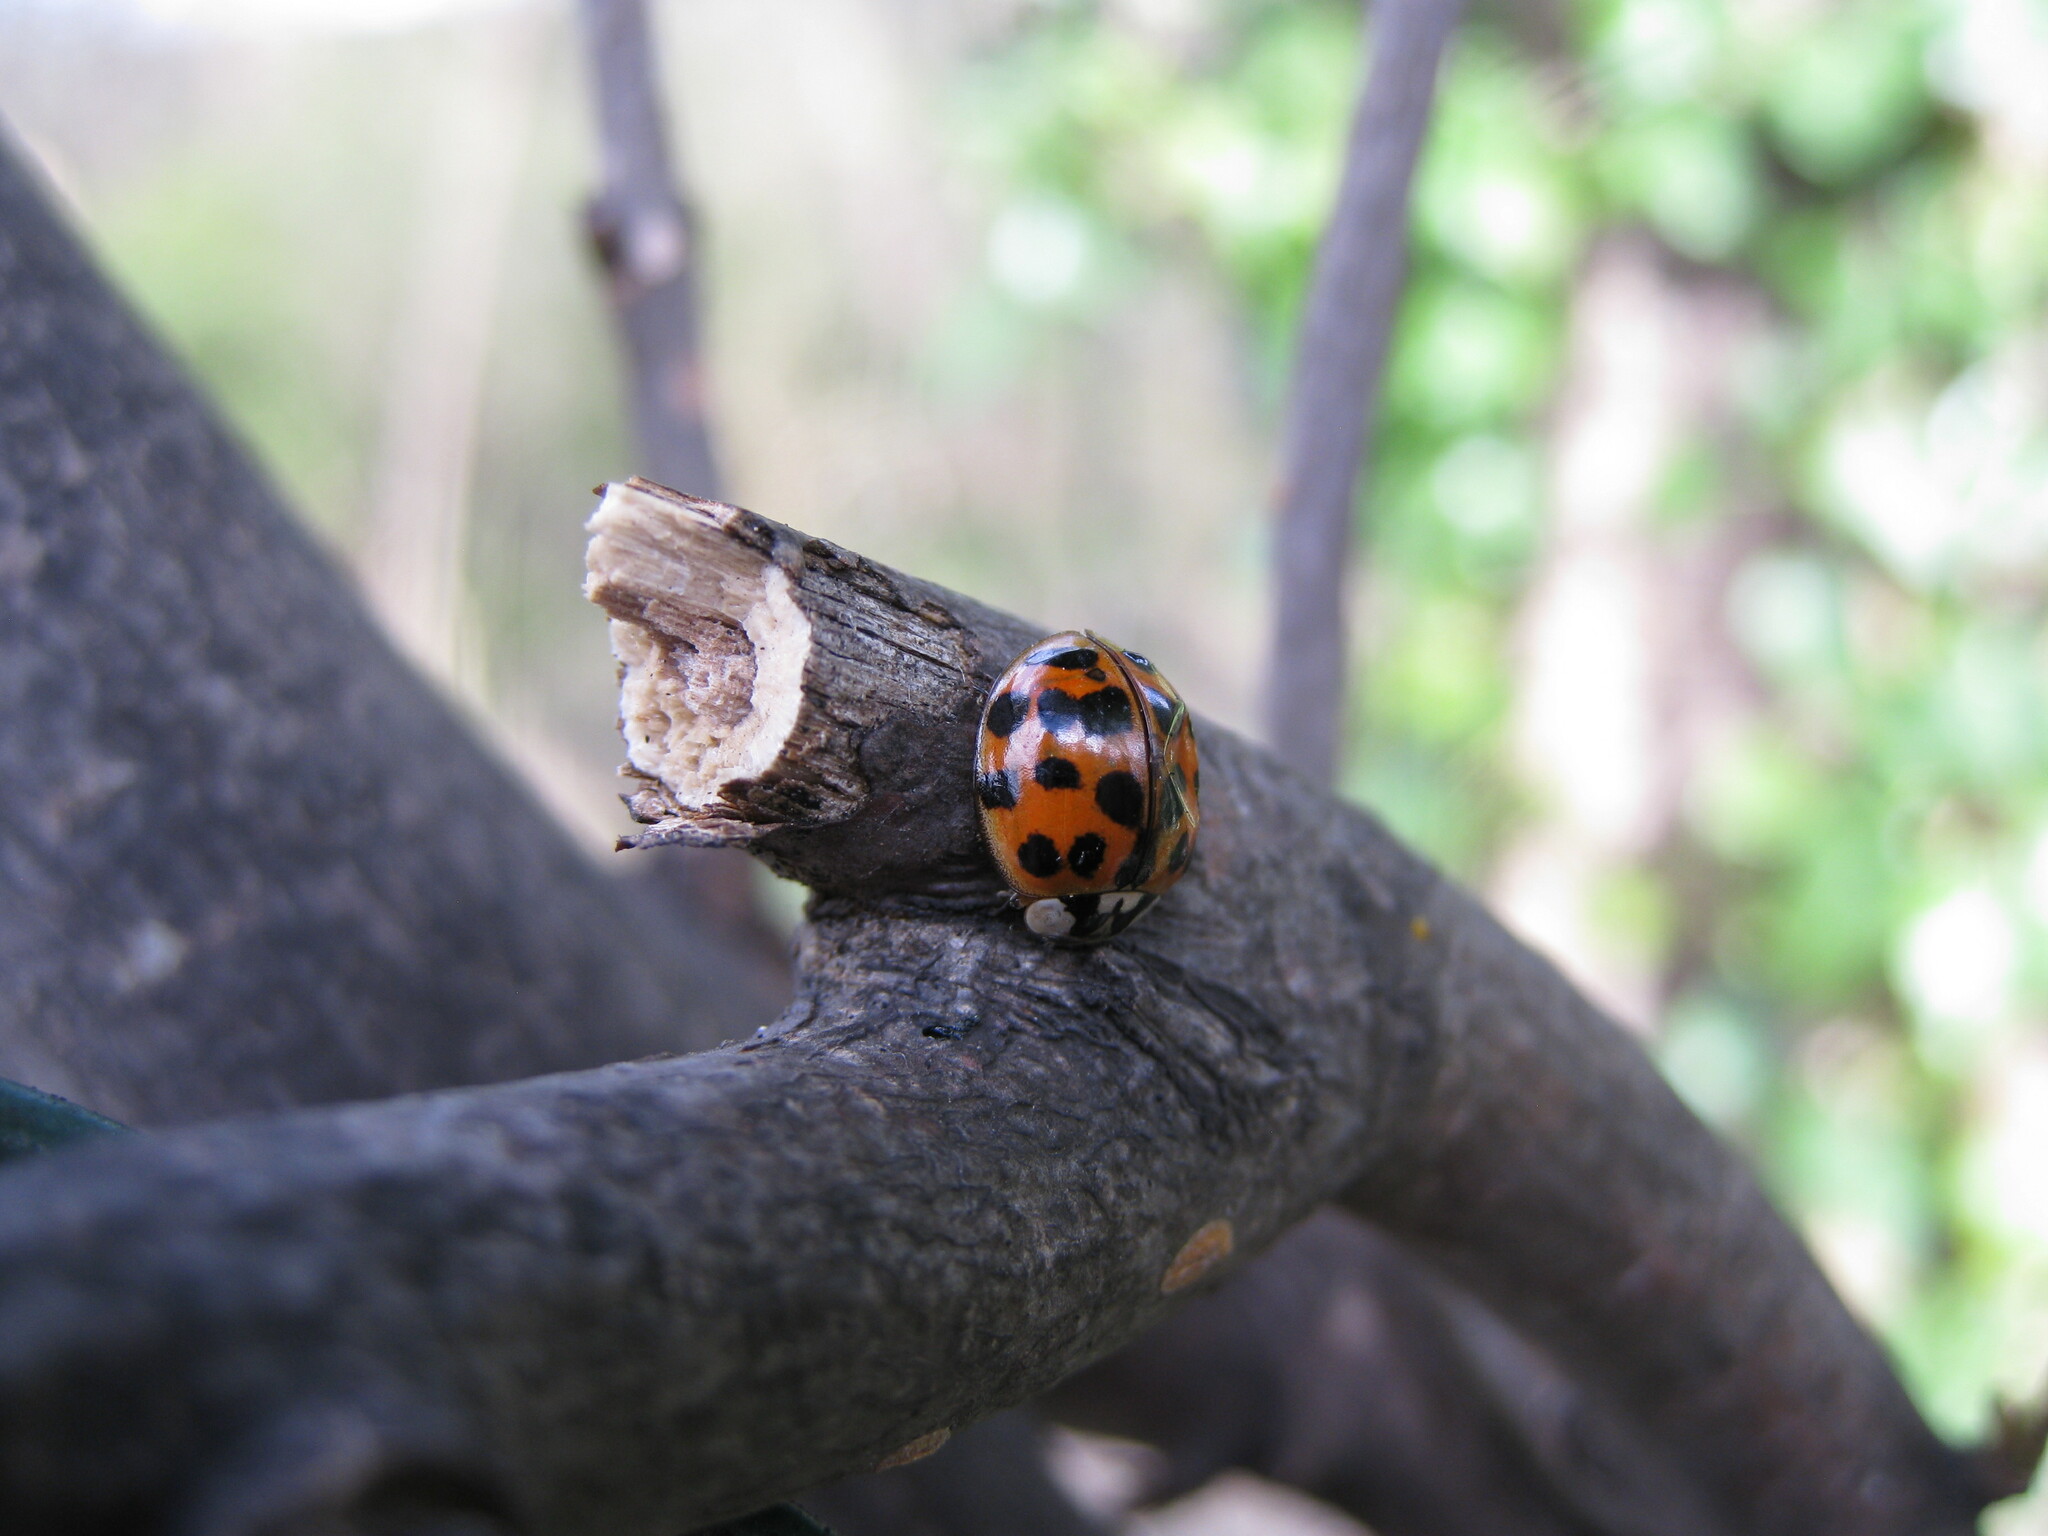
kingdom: Animalia
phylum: Arthropoda
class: Insecta
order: Coleoptera
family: Coccinellidae
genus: Harmonia
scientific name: Harmonia axyridis
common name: Harlequin ladybird
